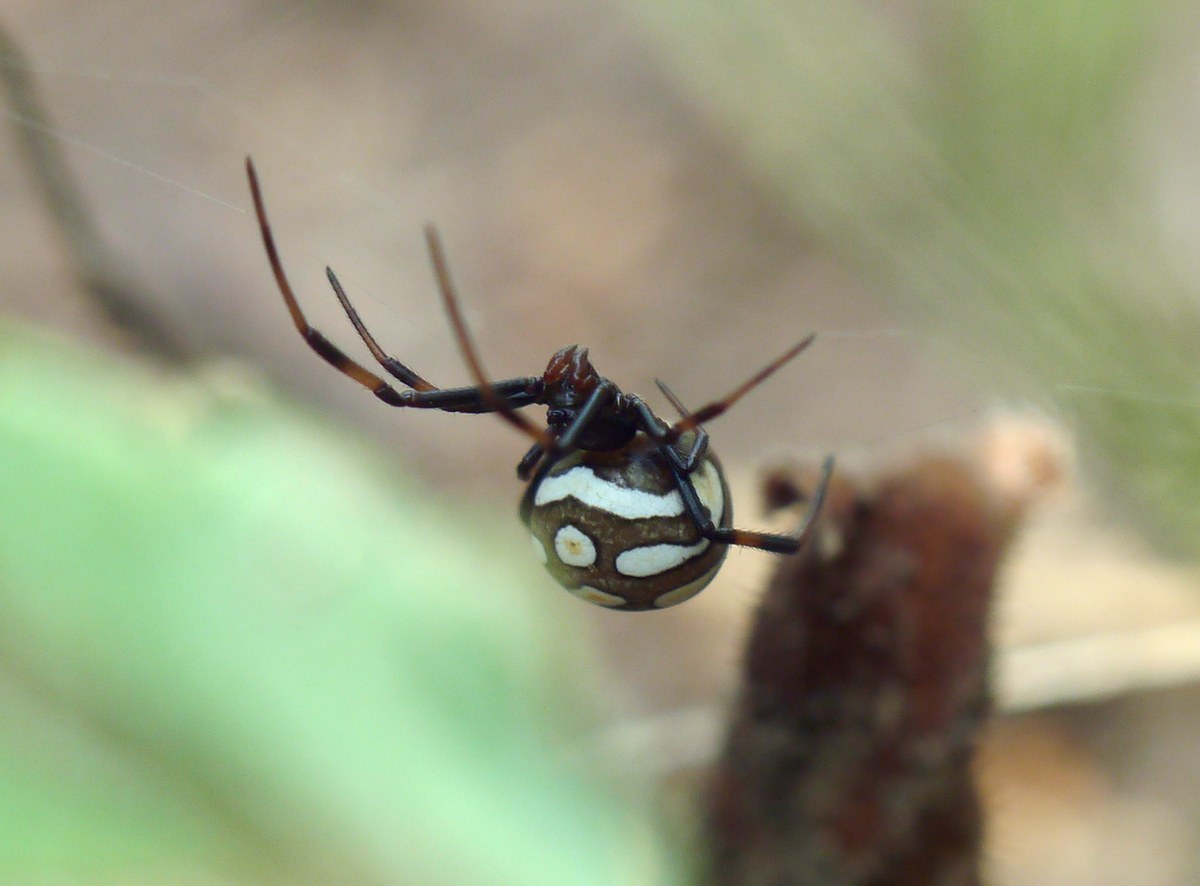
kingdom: Animalia
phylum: Arthropoda
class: Arachnida
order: Araneae
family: Theridiidae
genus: Latrodectus
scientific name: Latrodectus tredecimguttatus
